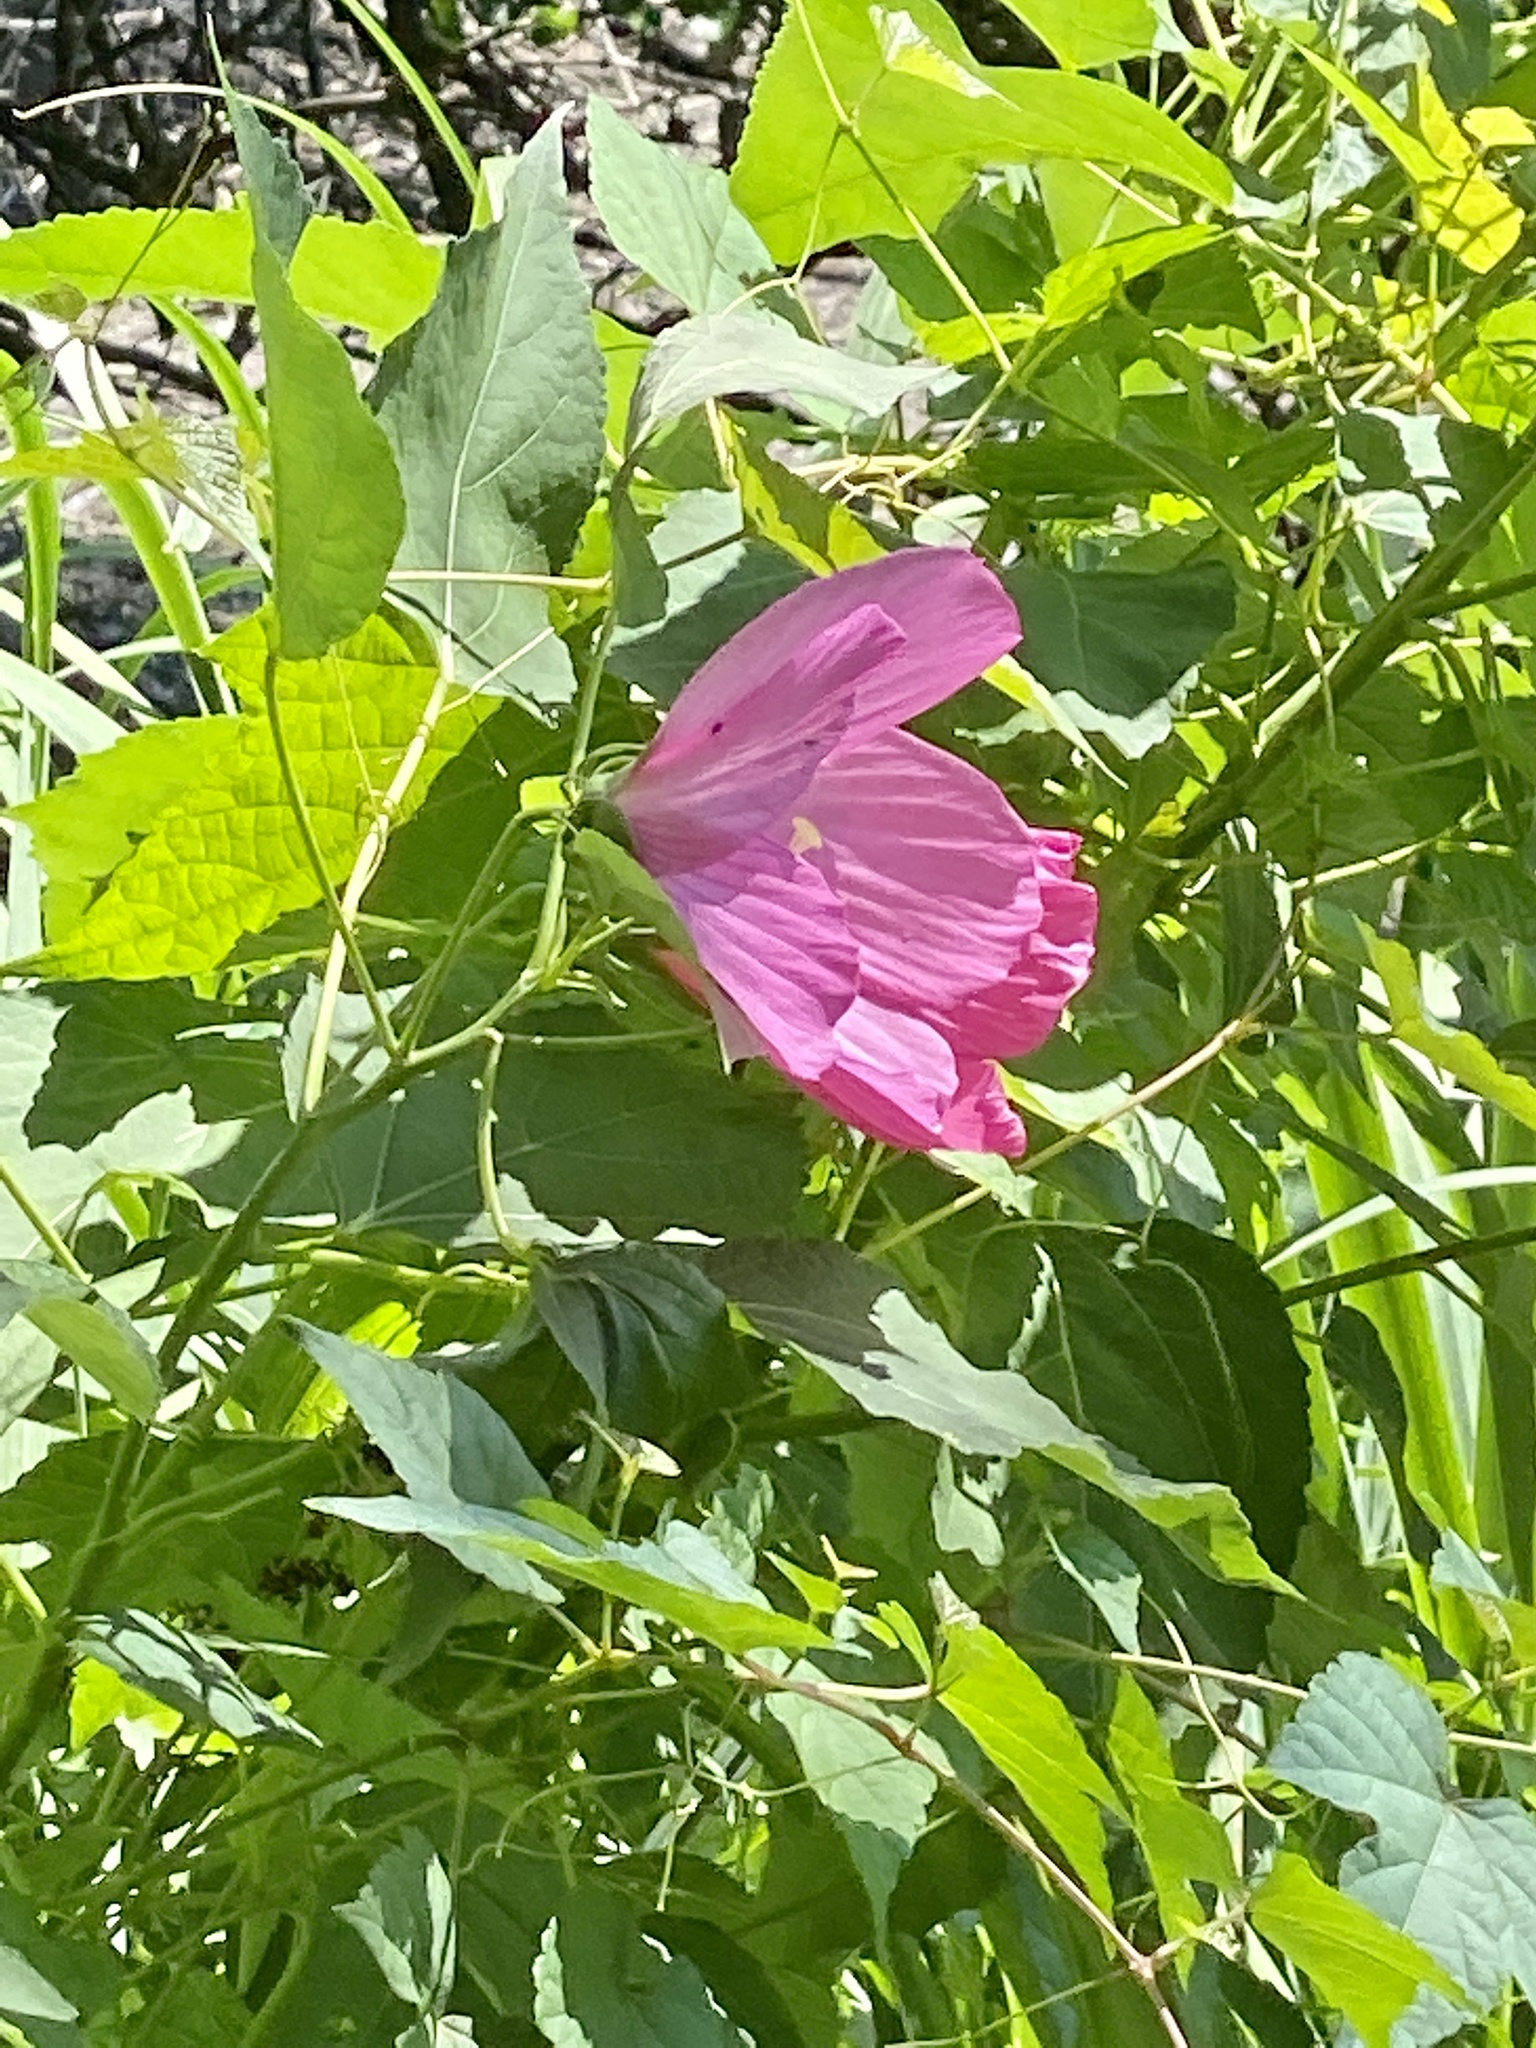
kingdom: Plantae
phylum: Tracheophyta
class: Magnoliopsida
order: Malvales
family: Malvaceae
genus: Hibiscus
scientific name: Hibiscus moscheutos
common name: Common rose-mallow
